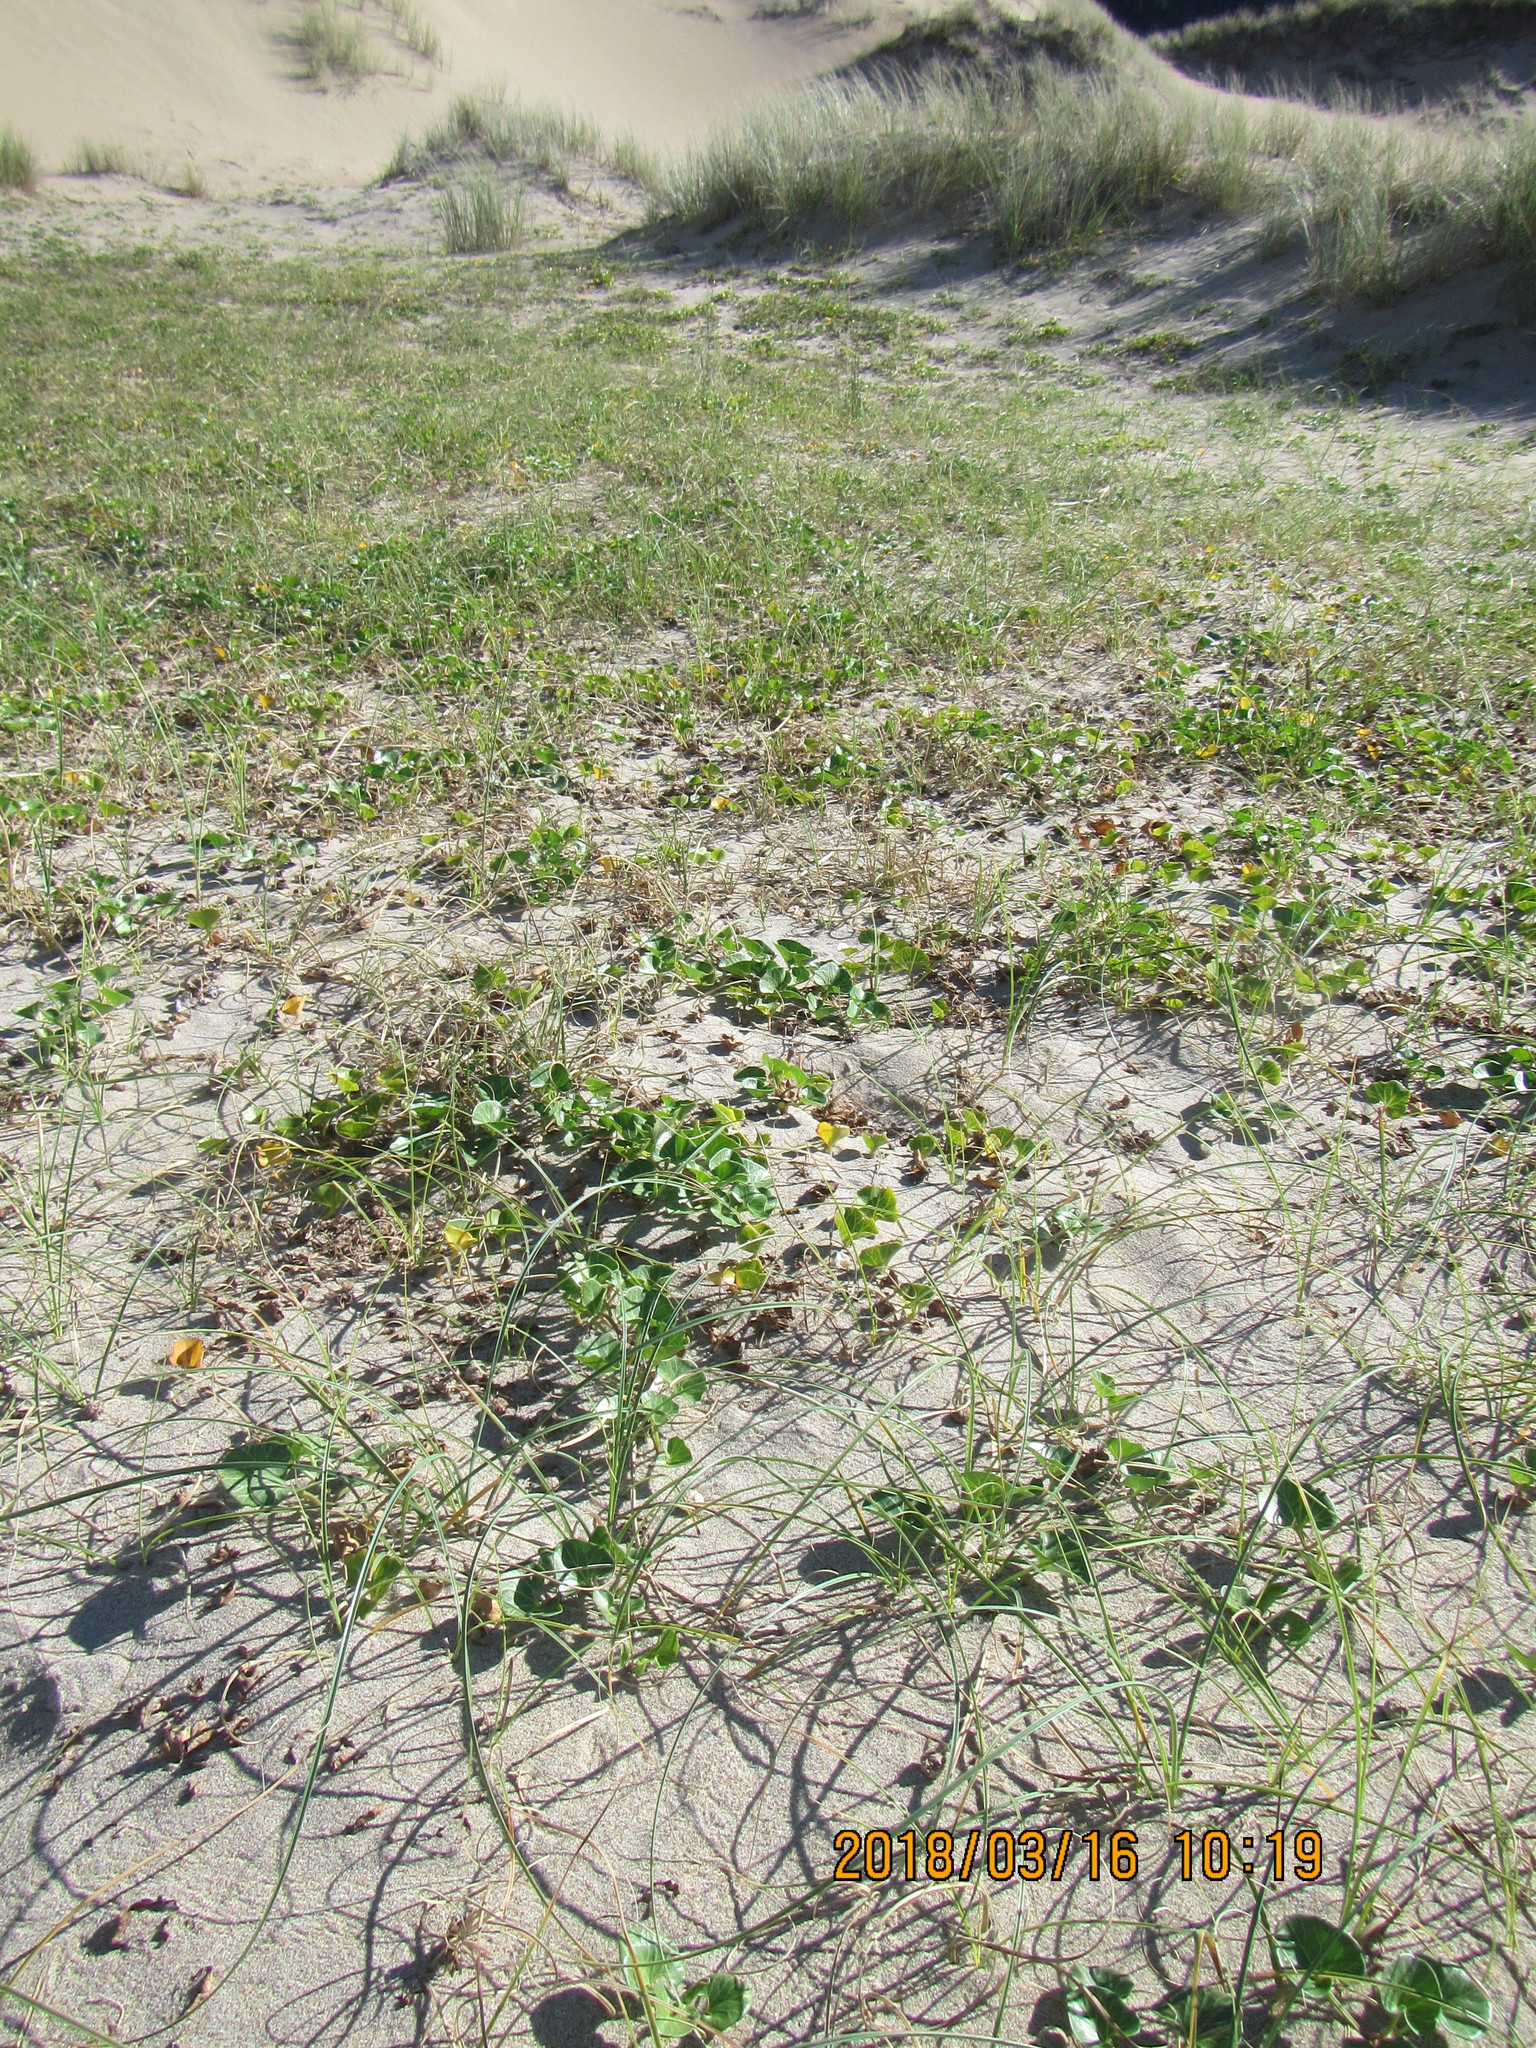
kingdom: Plantae
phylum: Tracheophyta
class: Liliopsida
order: Poales
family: Cyperaceae
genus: Carex
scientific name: Carex pumila
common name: Dwarf sedge
